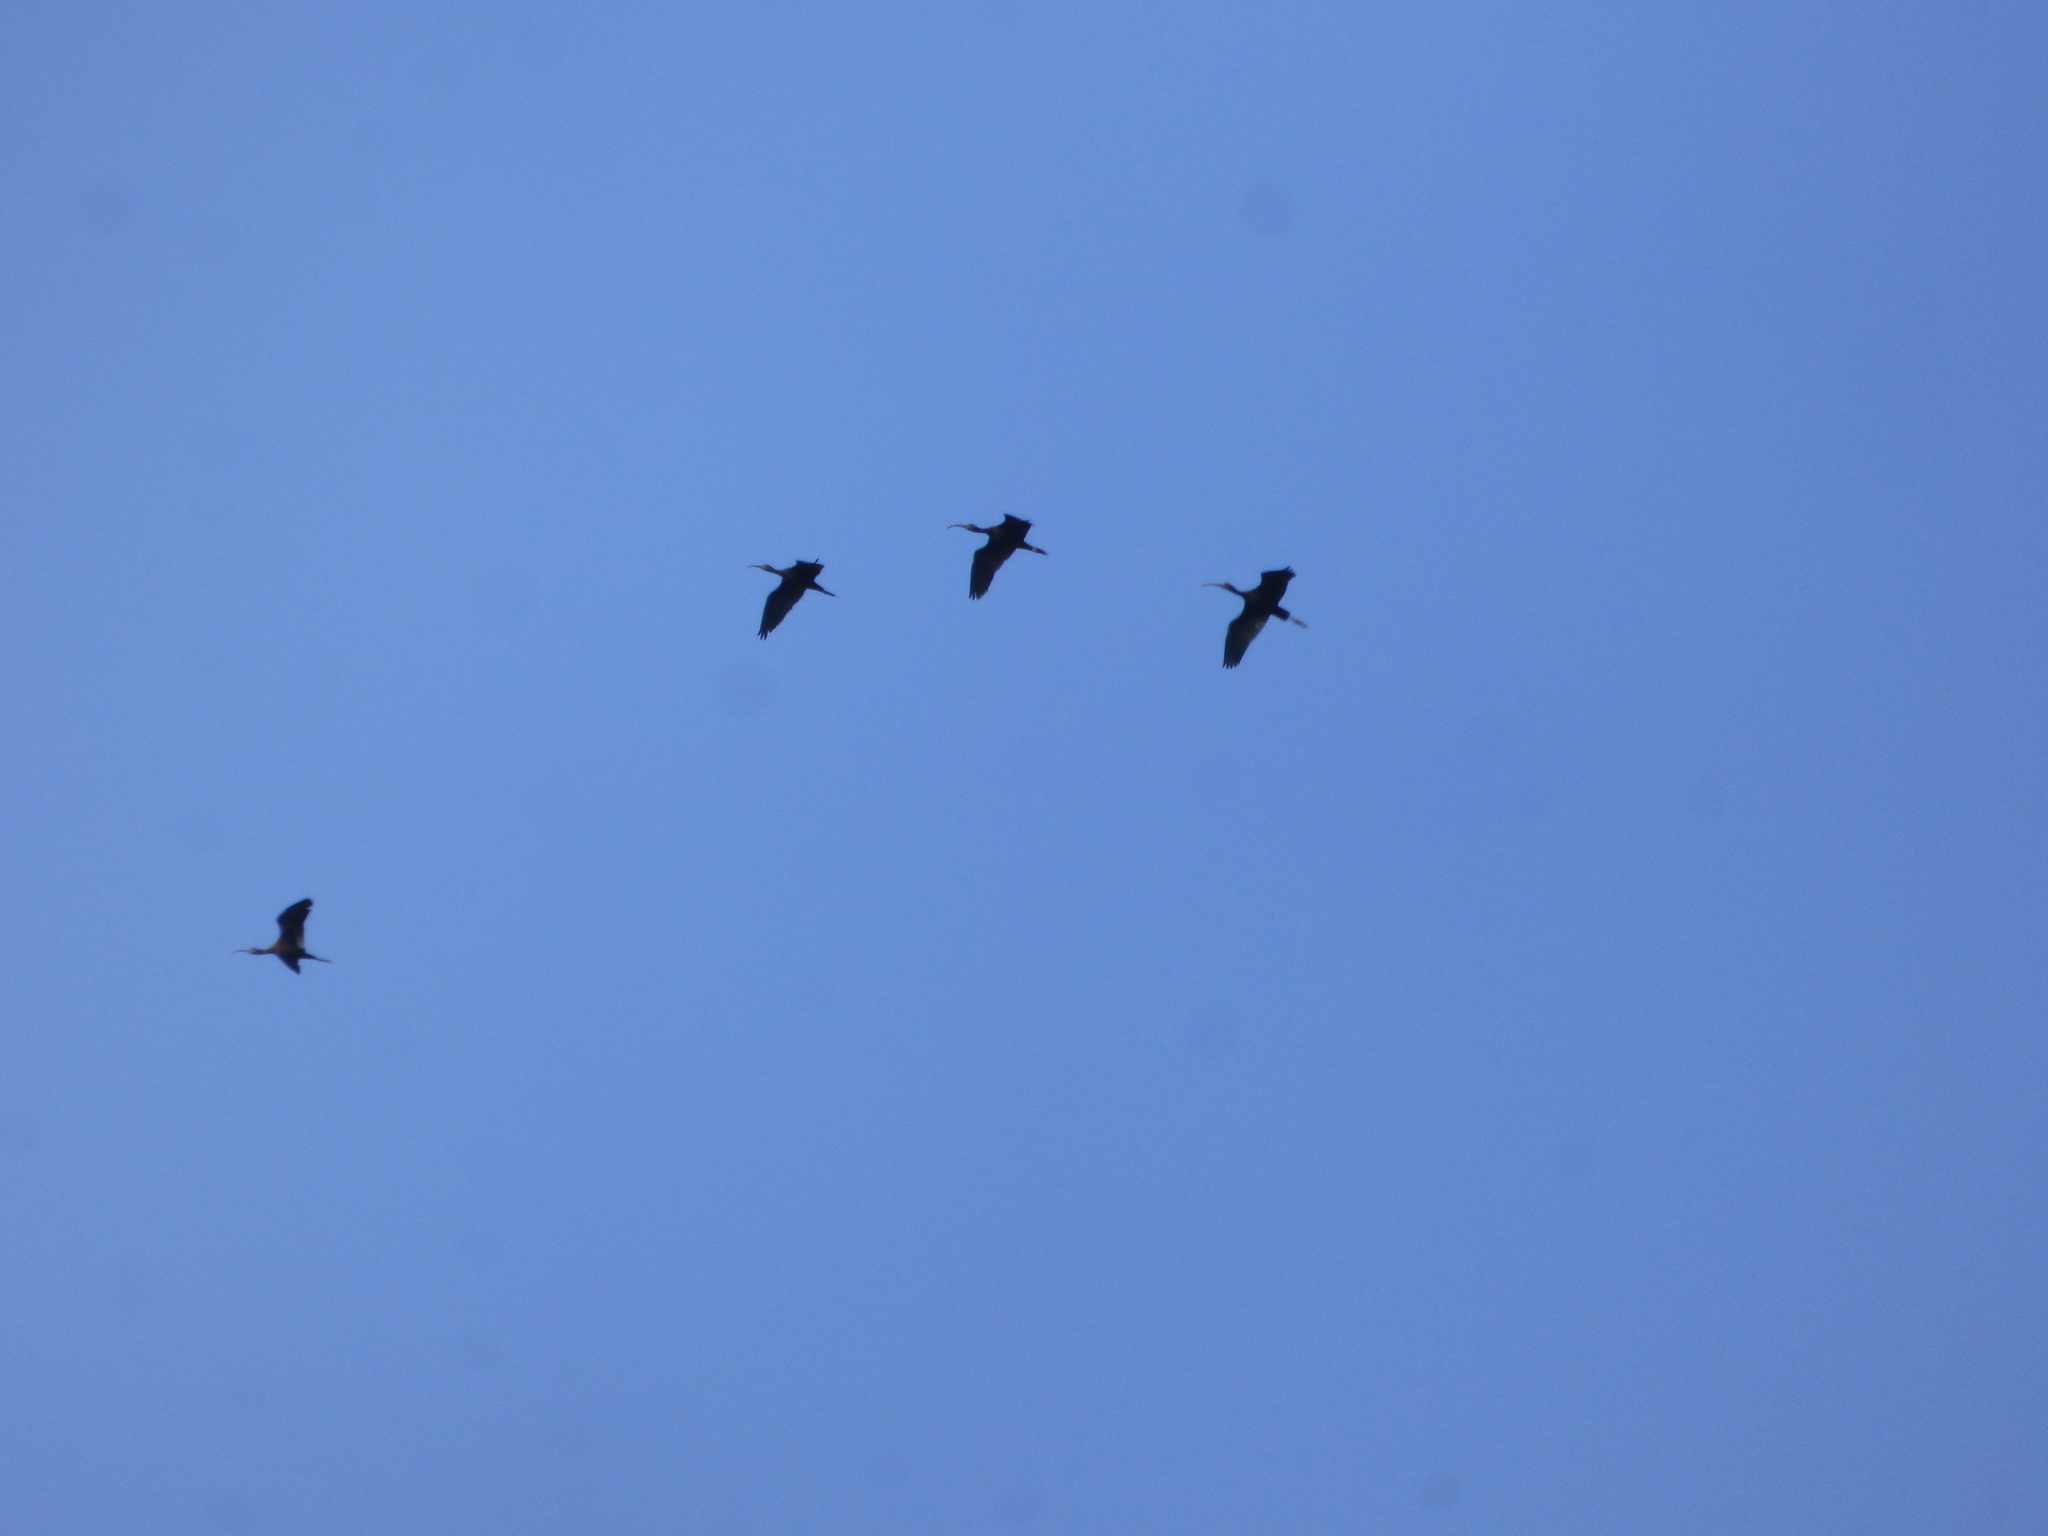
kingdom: Animalia
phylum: Chordata
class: Aves
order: Pelecaniformes
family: Threskiornithidae
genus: Plegadis
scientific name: Plegadis chihi
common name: White-faced ibis
